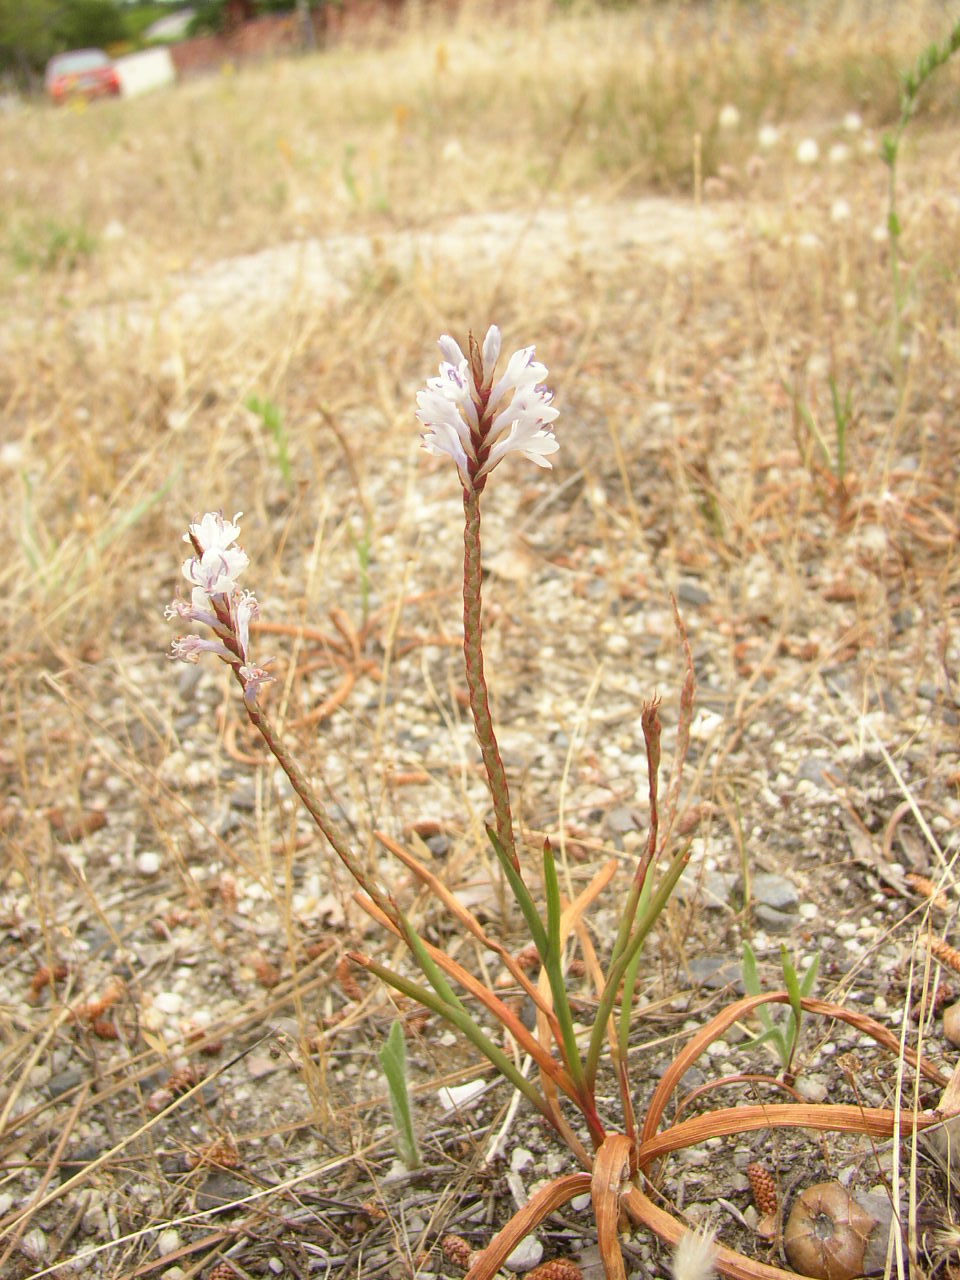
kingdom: Plantae
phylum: Tracheophyta
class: Liliopsida
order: Asparagales
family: Iridaceae
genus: Micranthus
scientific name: Micranthus tubulosus
